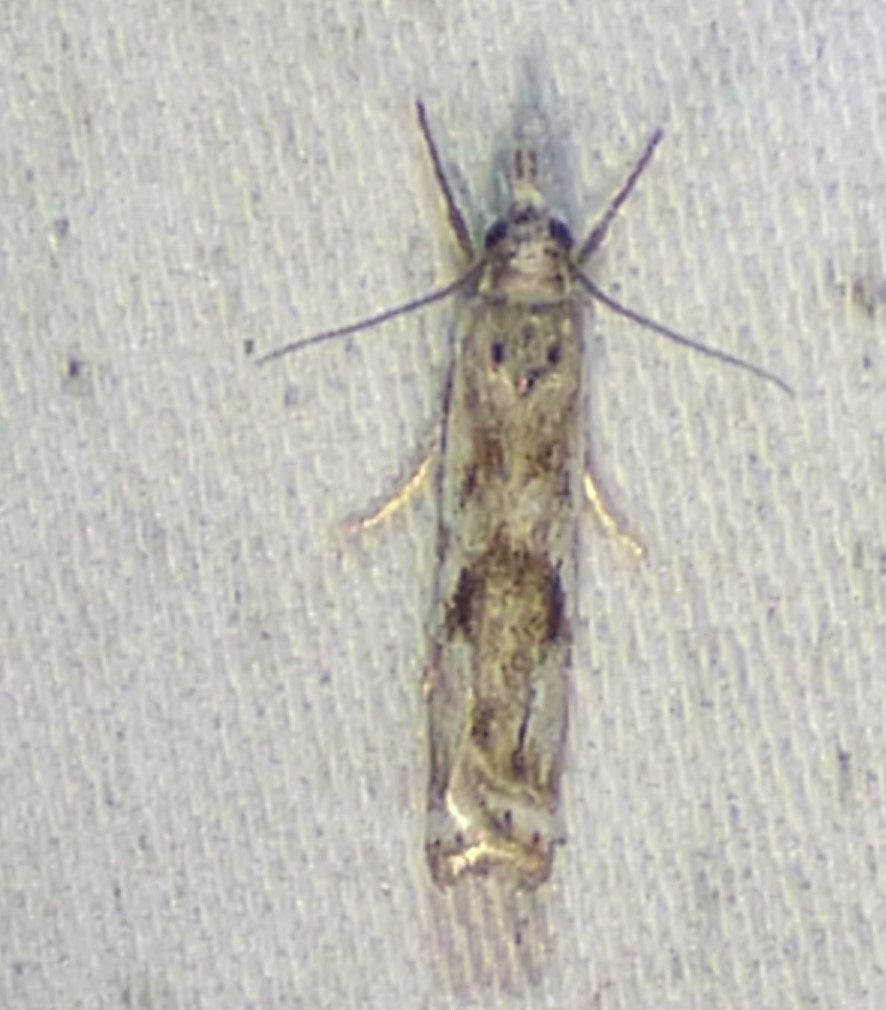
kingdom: Animalia
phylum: Arthropoda
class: Insecta
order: Lepidoptera
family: Crambidae
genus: Microcrambus
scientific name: Microcrambus immunellus
